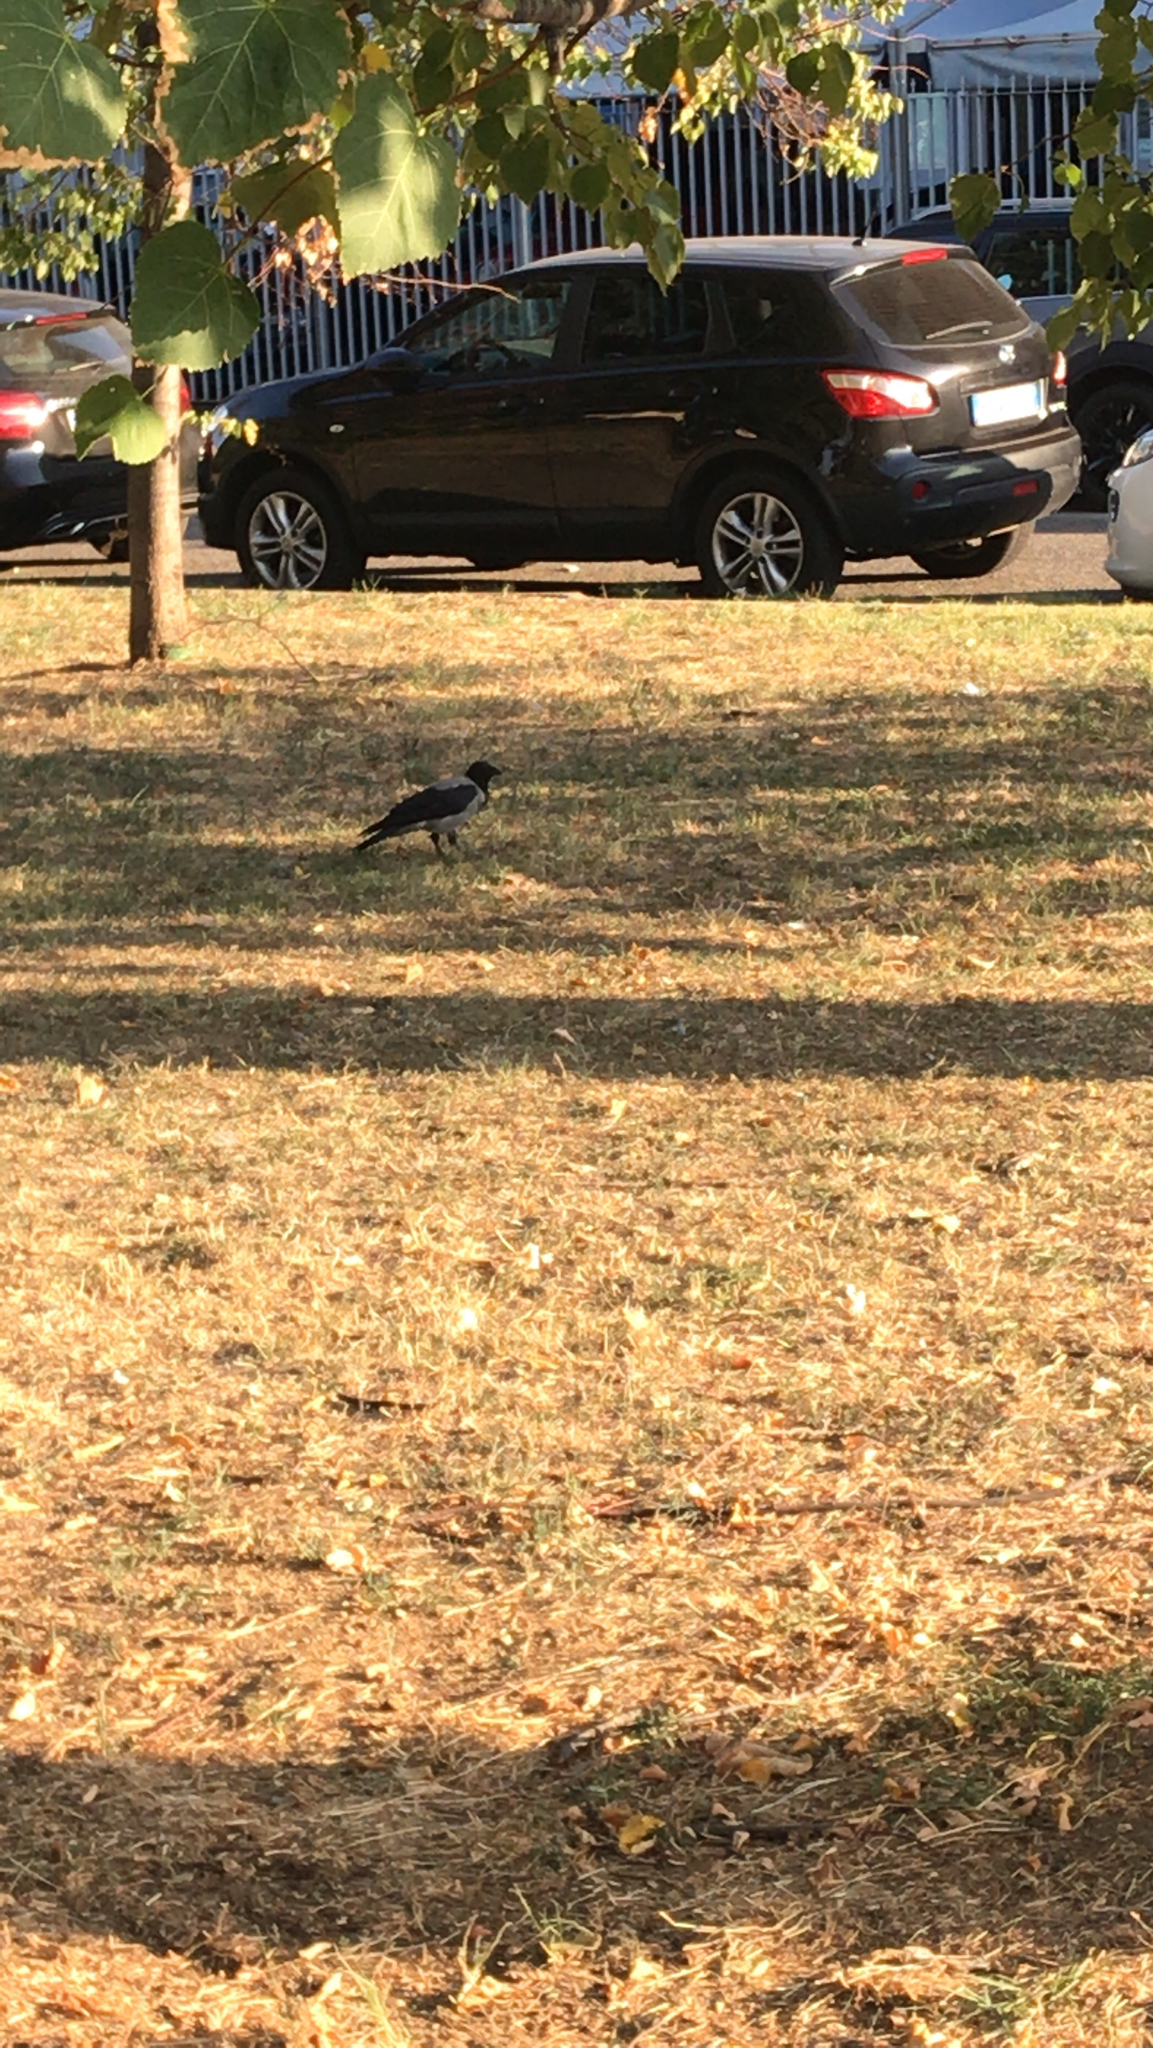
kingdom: Animalia
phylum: Chordata
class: Aves
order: Passeriformes
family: Corvidae
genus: Corvus
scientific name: Corvus cornix
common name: Hooded crow
